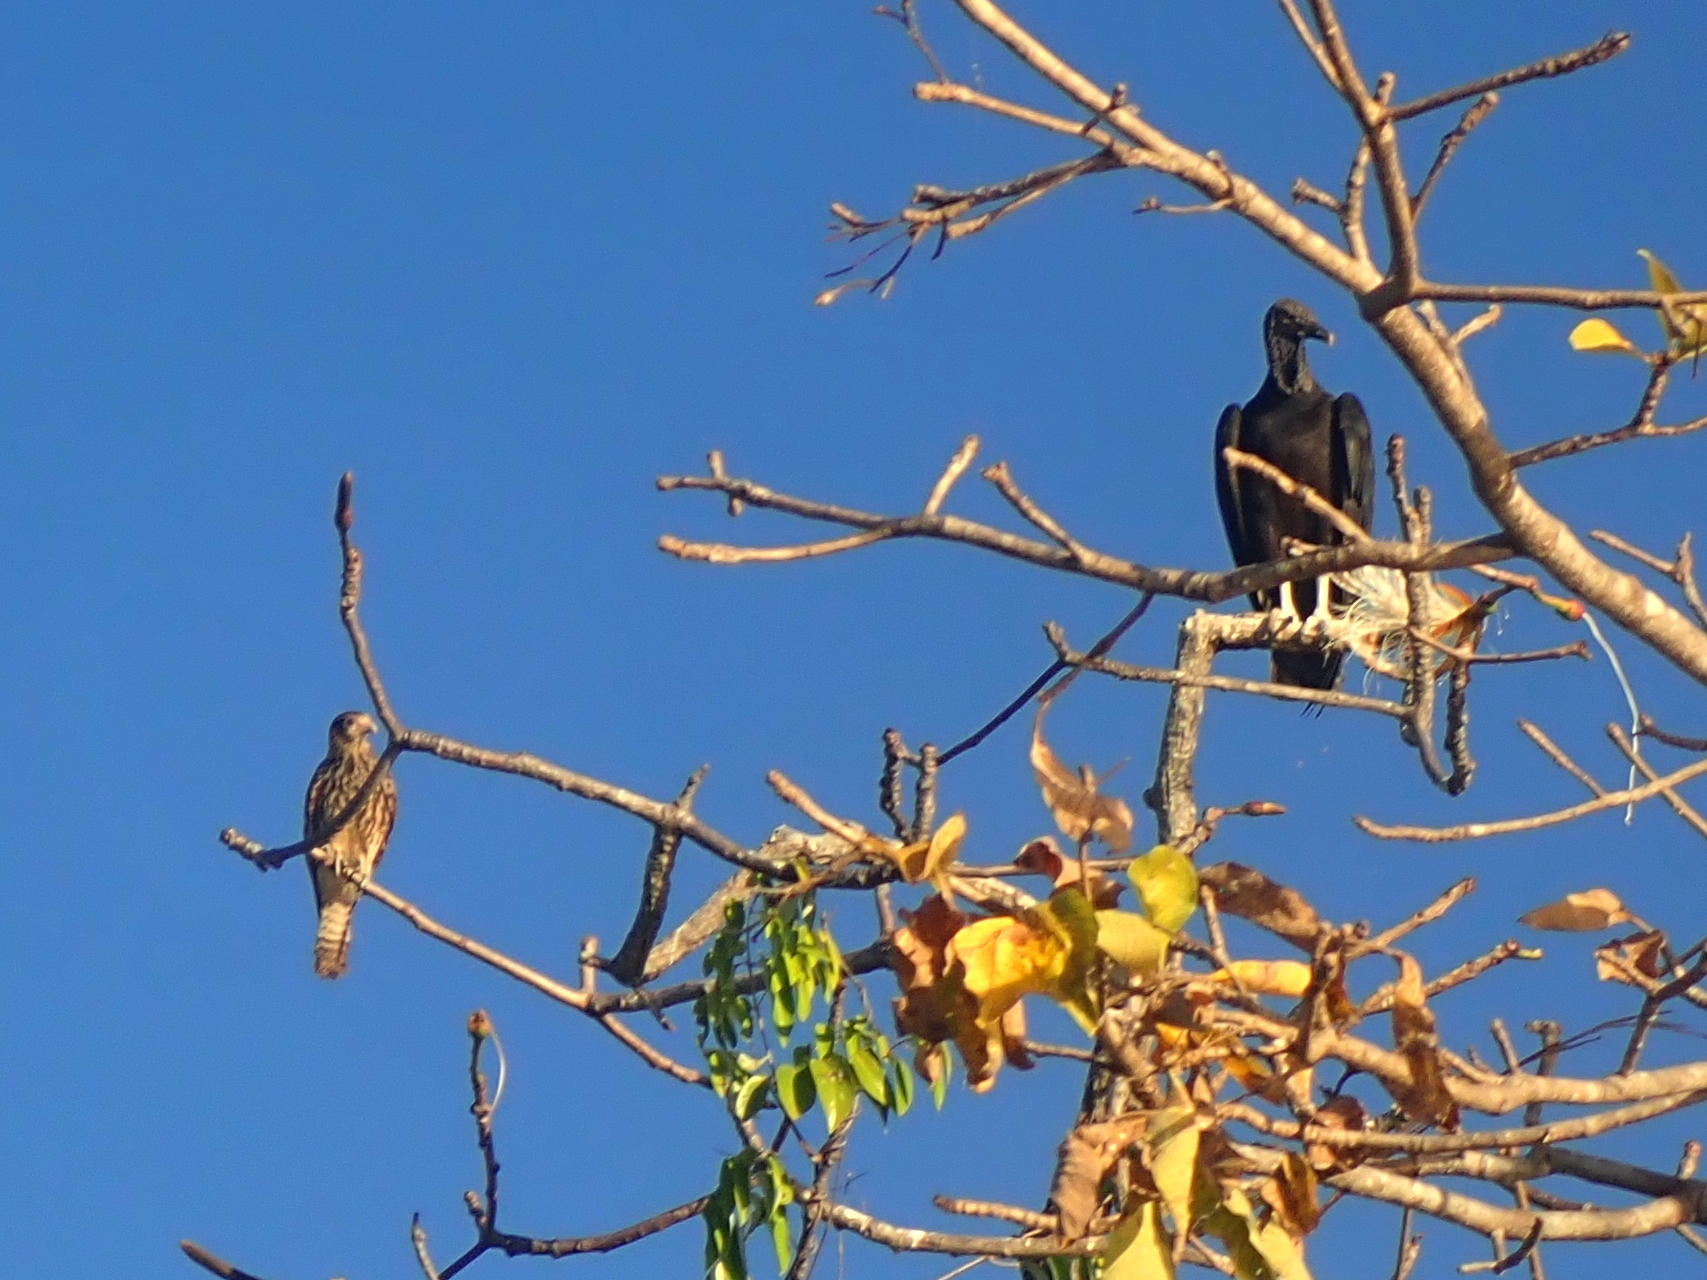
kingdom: Animalia
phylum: Chordata
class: Aves
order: Falconiformes
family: Falconidae
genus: Daptrius
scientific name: Daptrius
